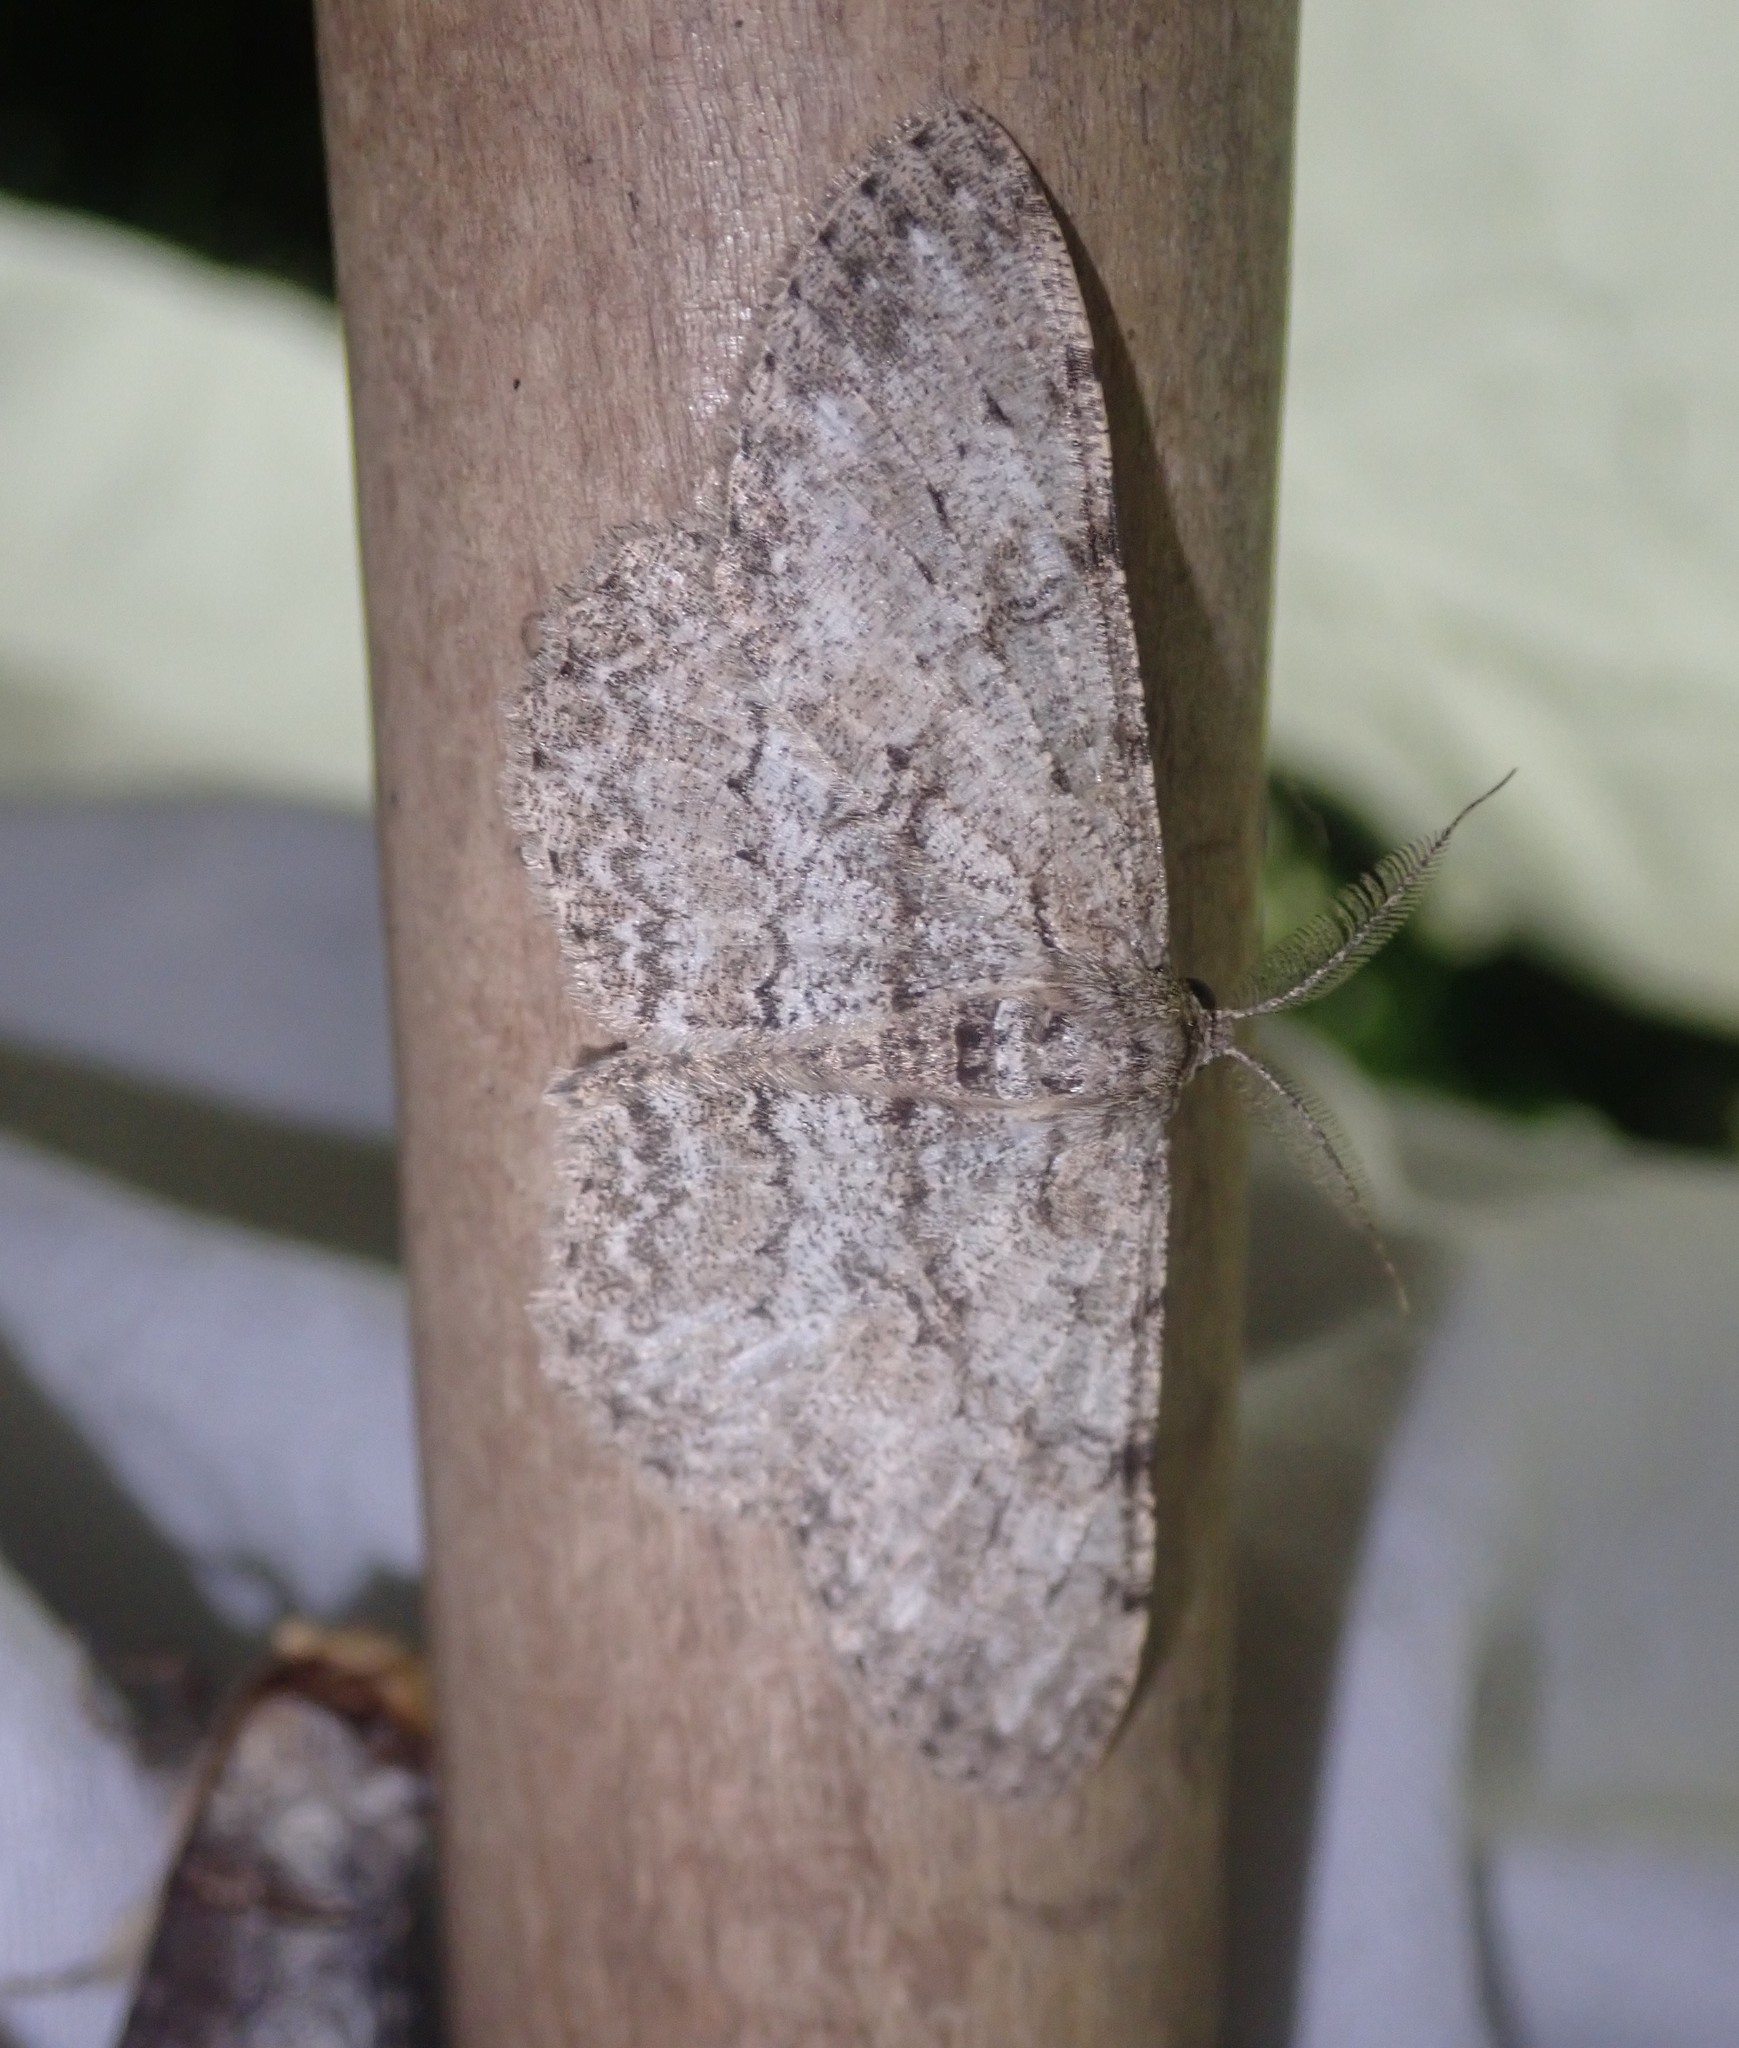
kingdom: Animalia
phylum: Arthropoda
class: Insecta
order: Lepidoptera
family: Geometridae
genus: Hypomecis
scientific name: Hypomecis punctinalis
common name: Pale oak beauty
